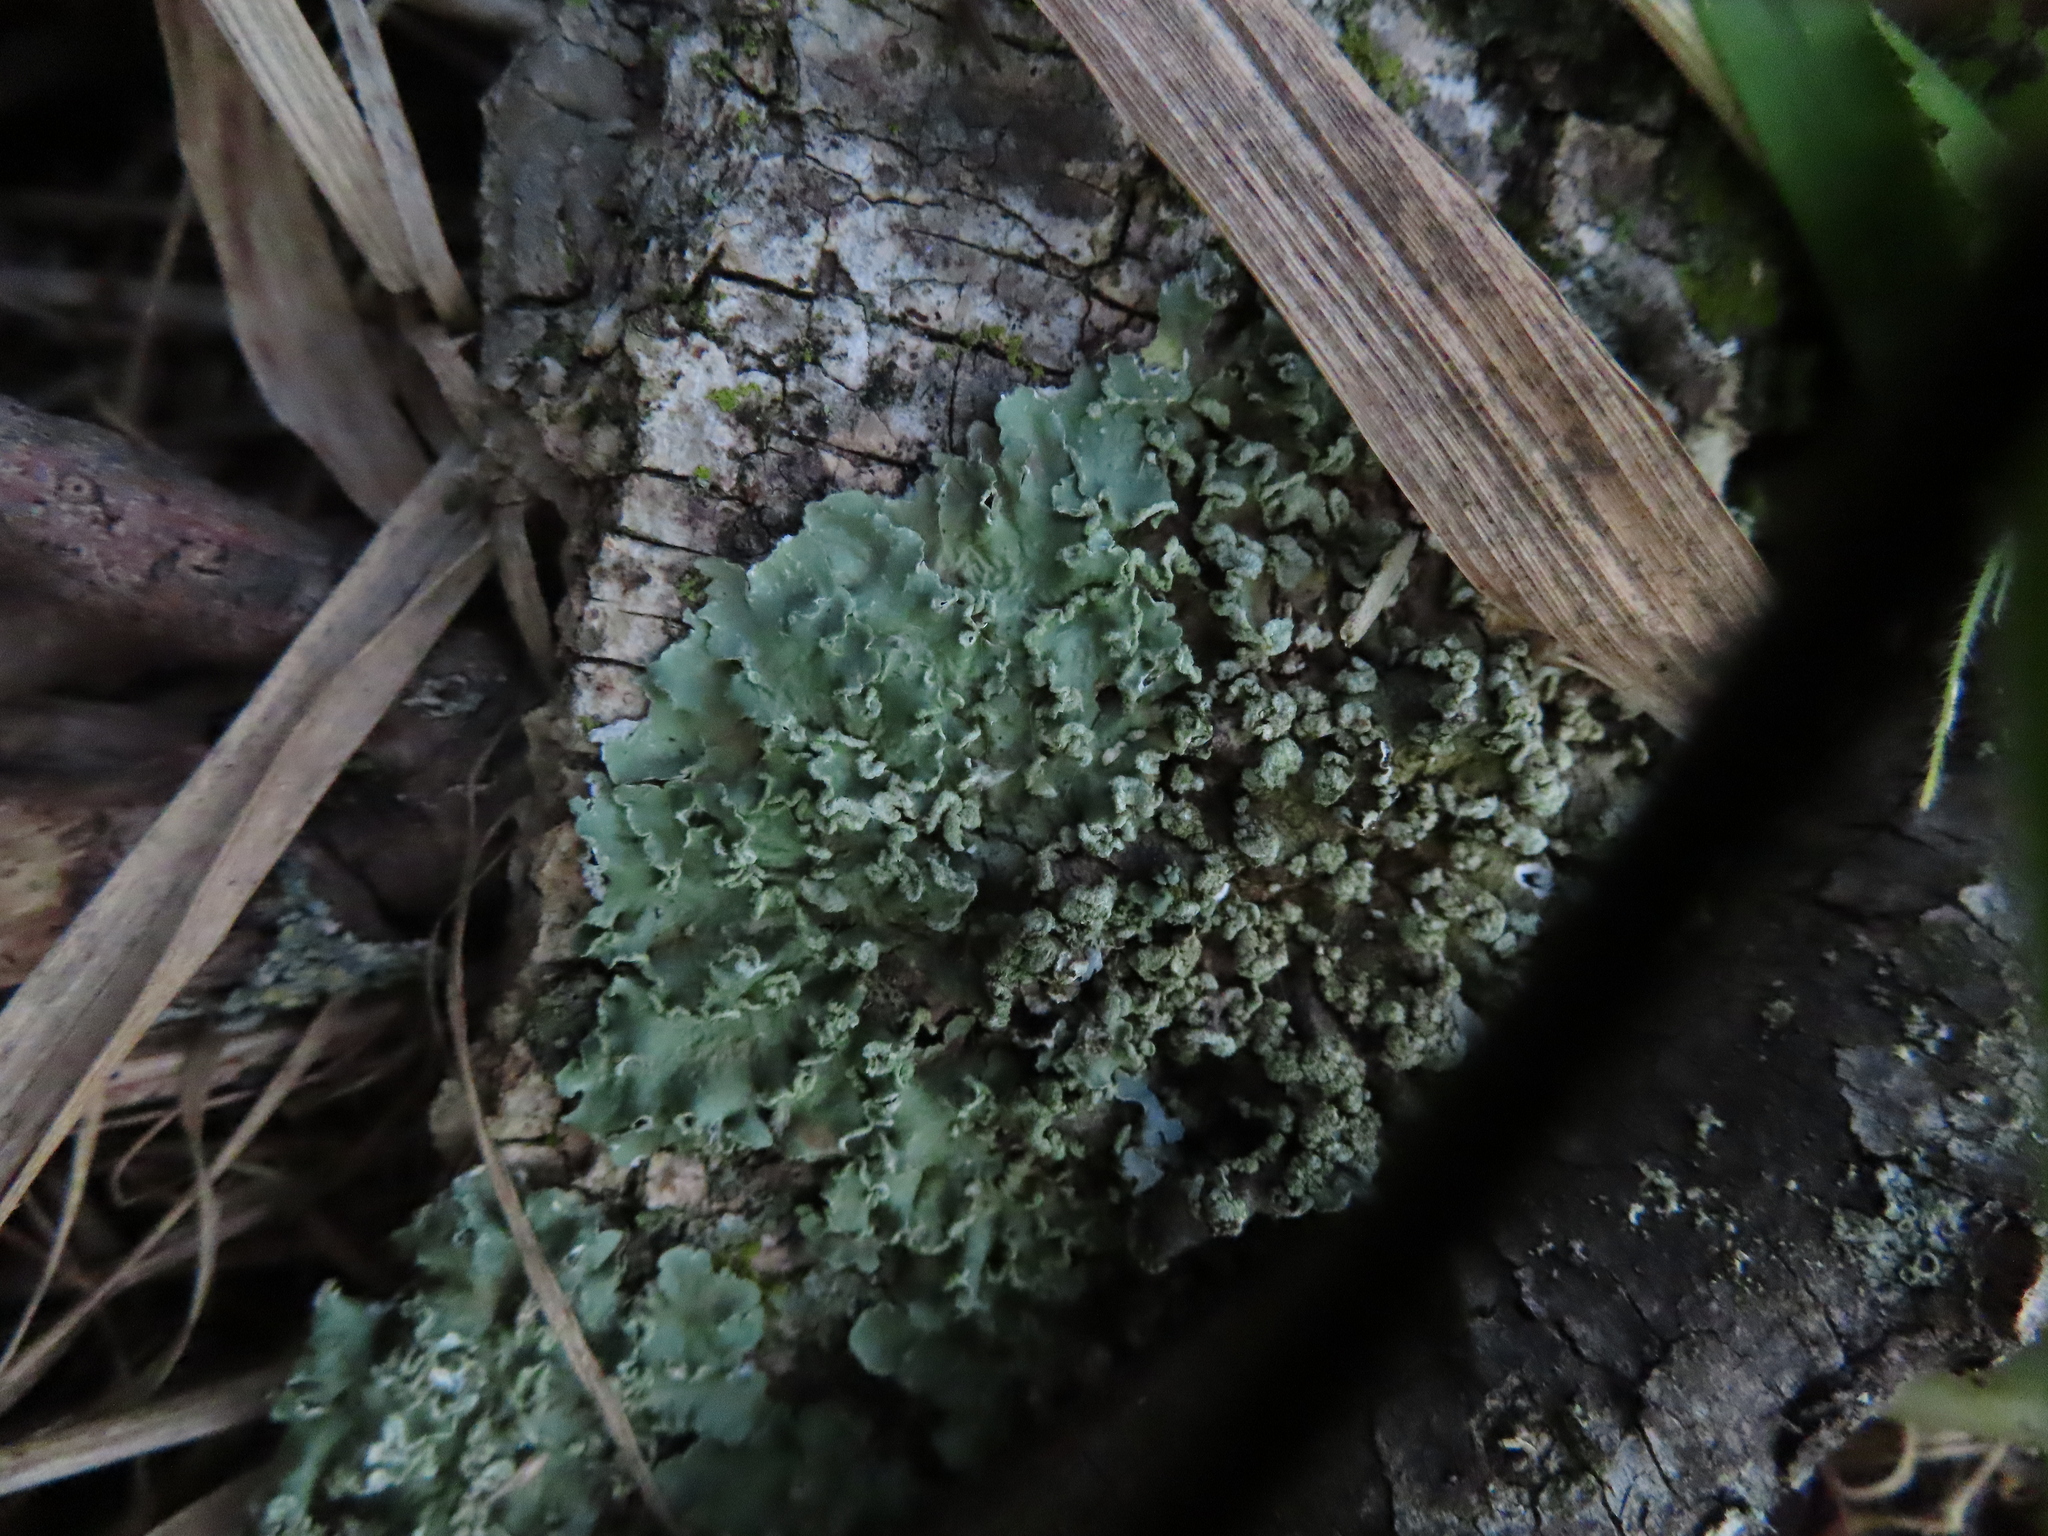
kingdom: Fungi
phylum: Ascomycota
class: Lecanoromycetes
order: Lecanorales
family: Parmeliaceae
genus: Flavopunctelia
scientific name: Flavopunctelia soredica
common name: Powder-edged speckled greenshield
